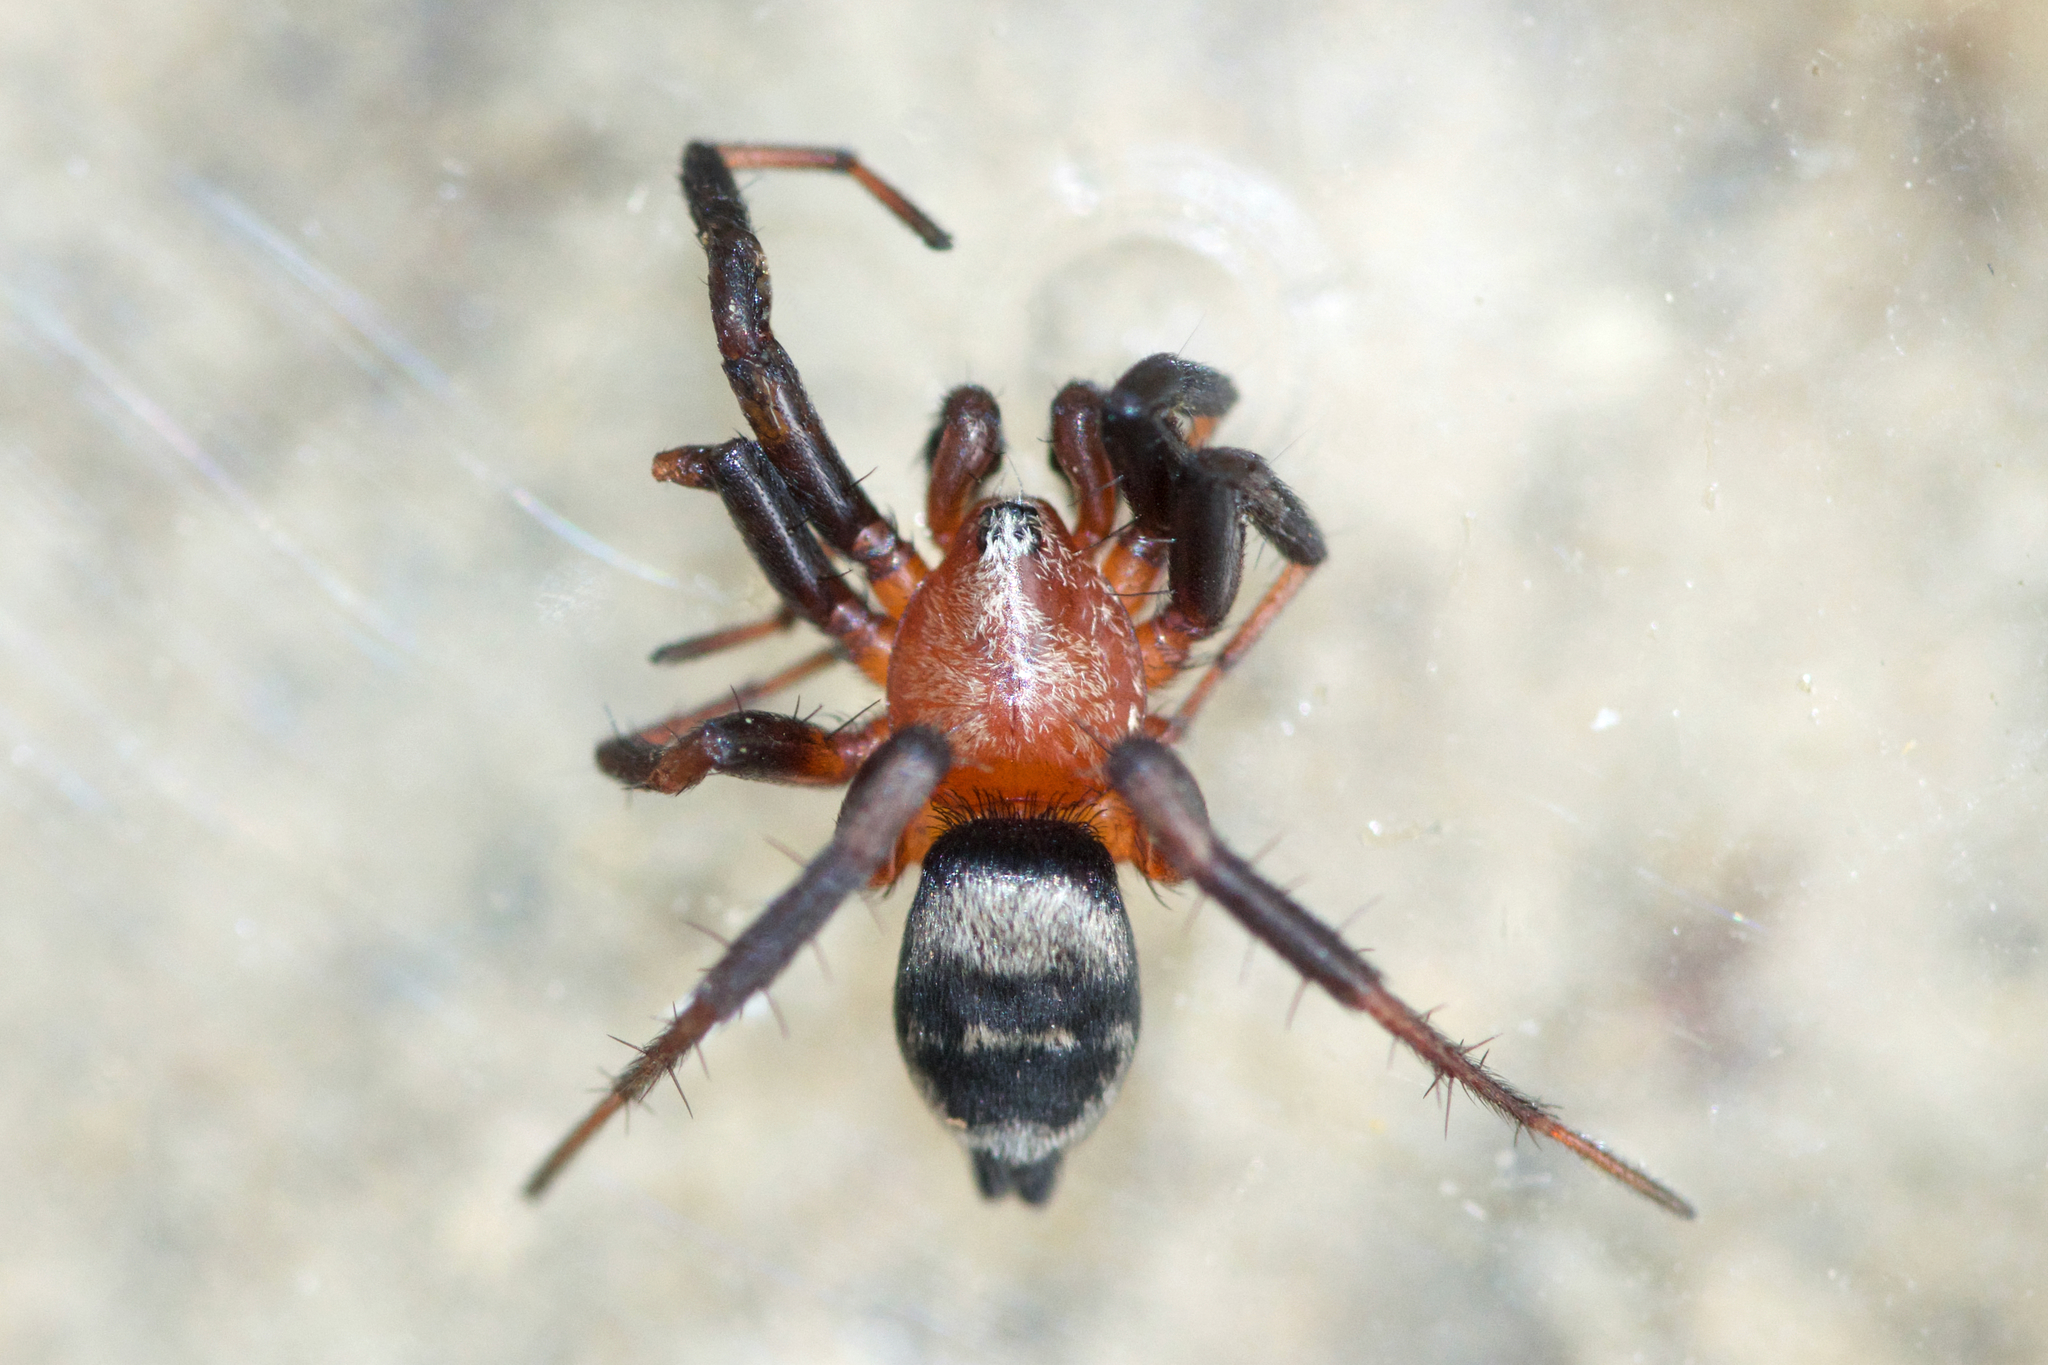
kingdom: Animalia
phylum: Arthropoda
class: Arachnida
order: Araneae
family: Gnaphosidae
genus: Callilepis
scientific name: Callilepis
